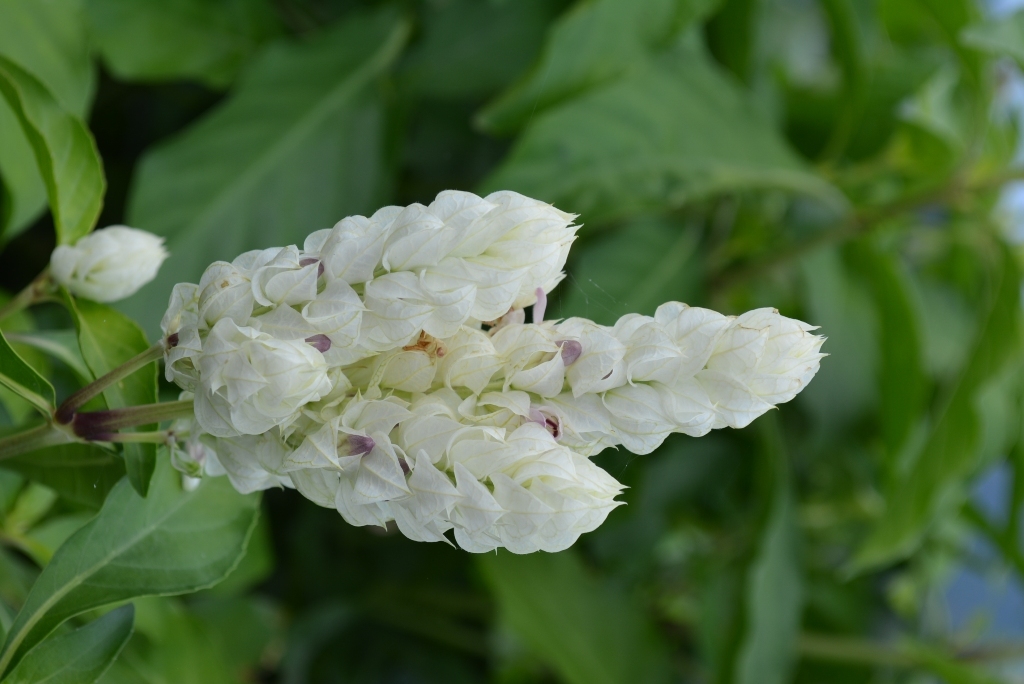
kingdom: Plantae
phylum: Tracheophyta
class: Magnoliopsida
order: Lamiales
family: Acanthaceae
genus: Justicia
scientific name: Justicia betonica
